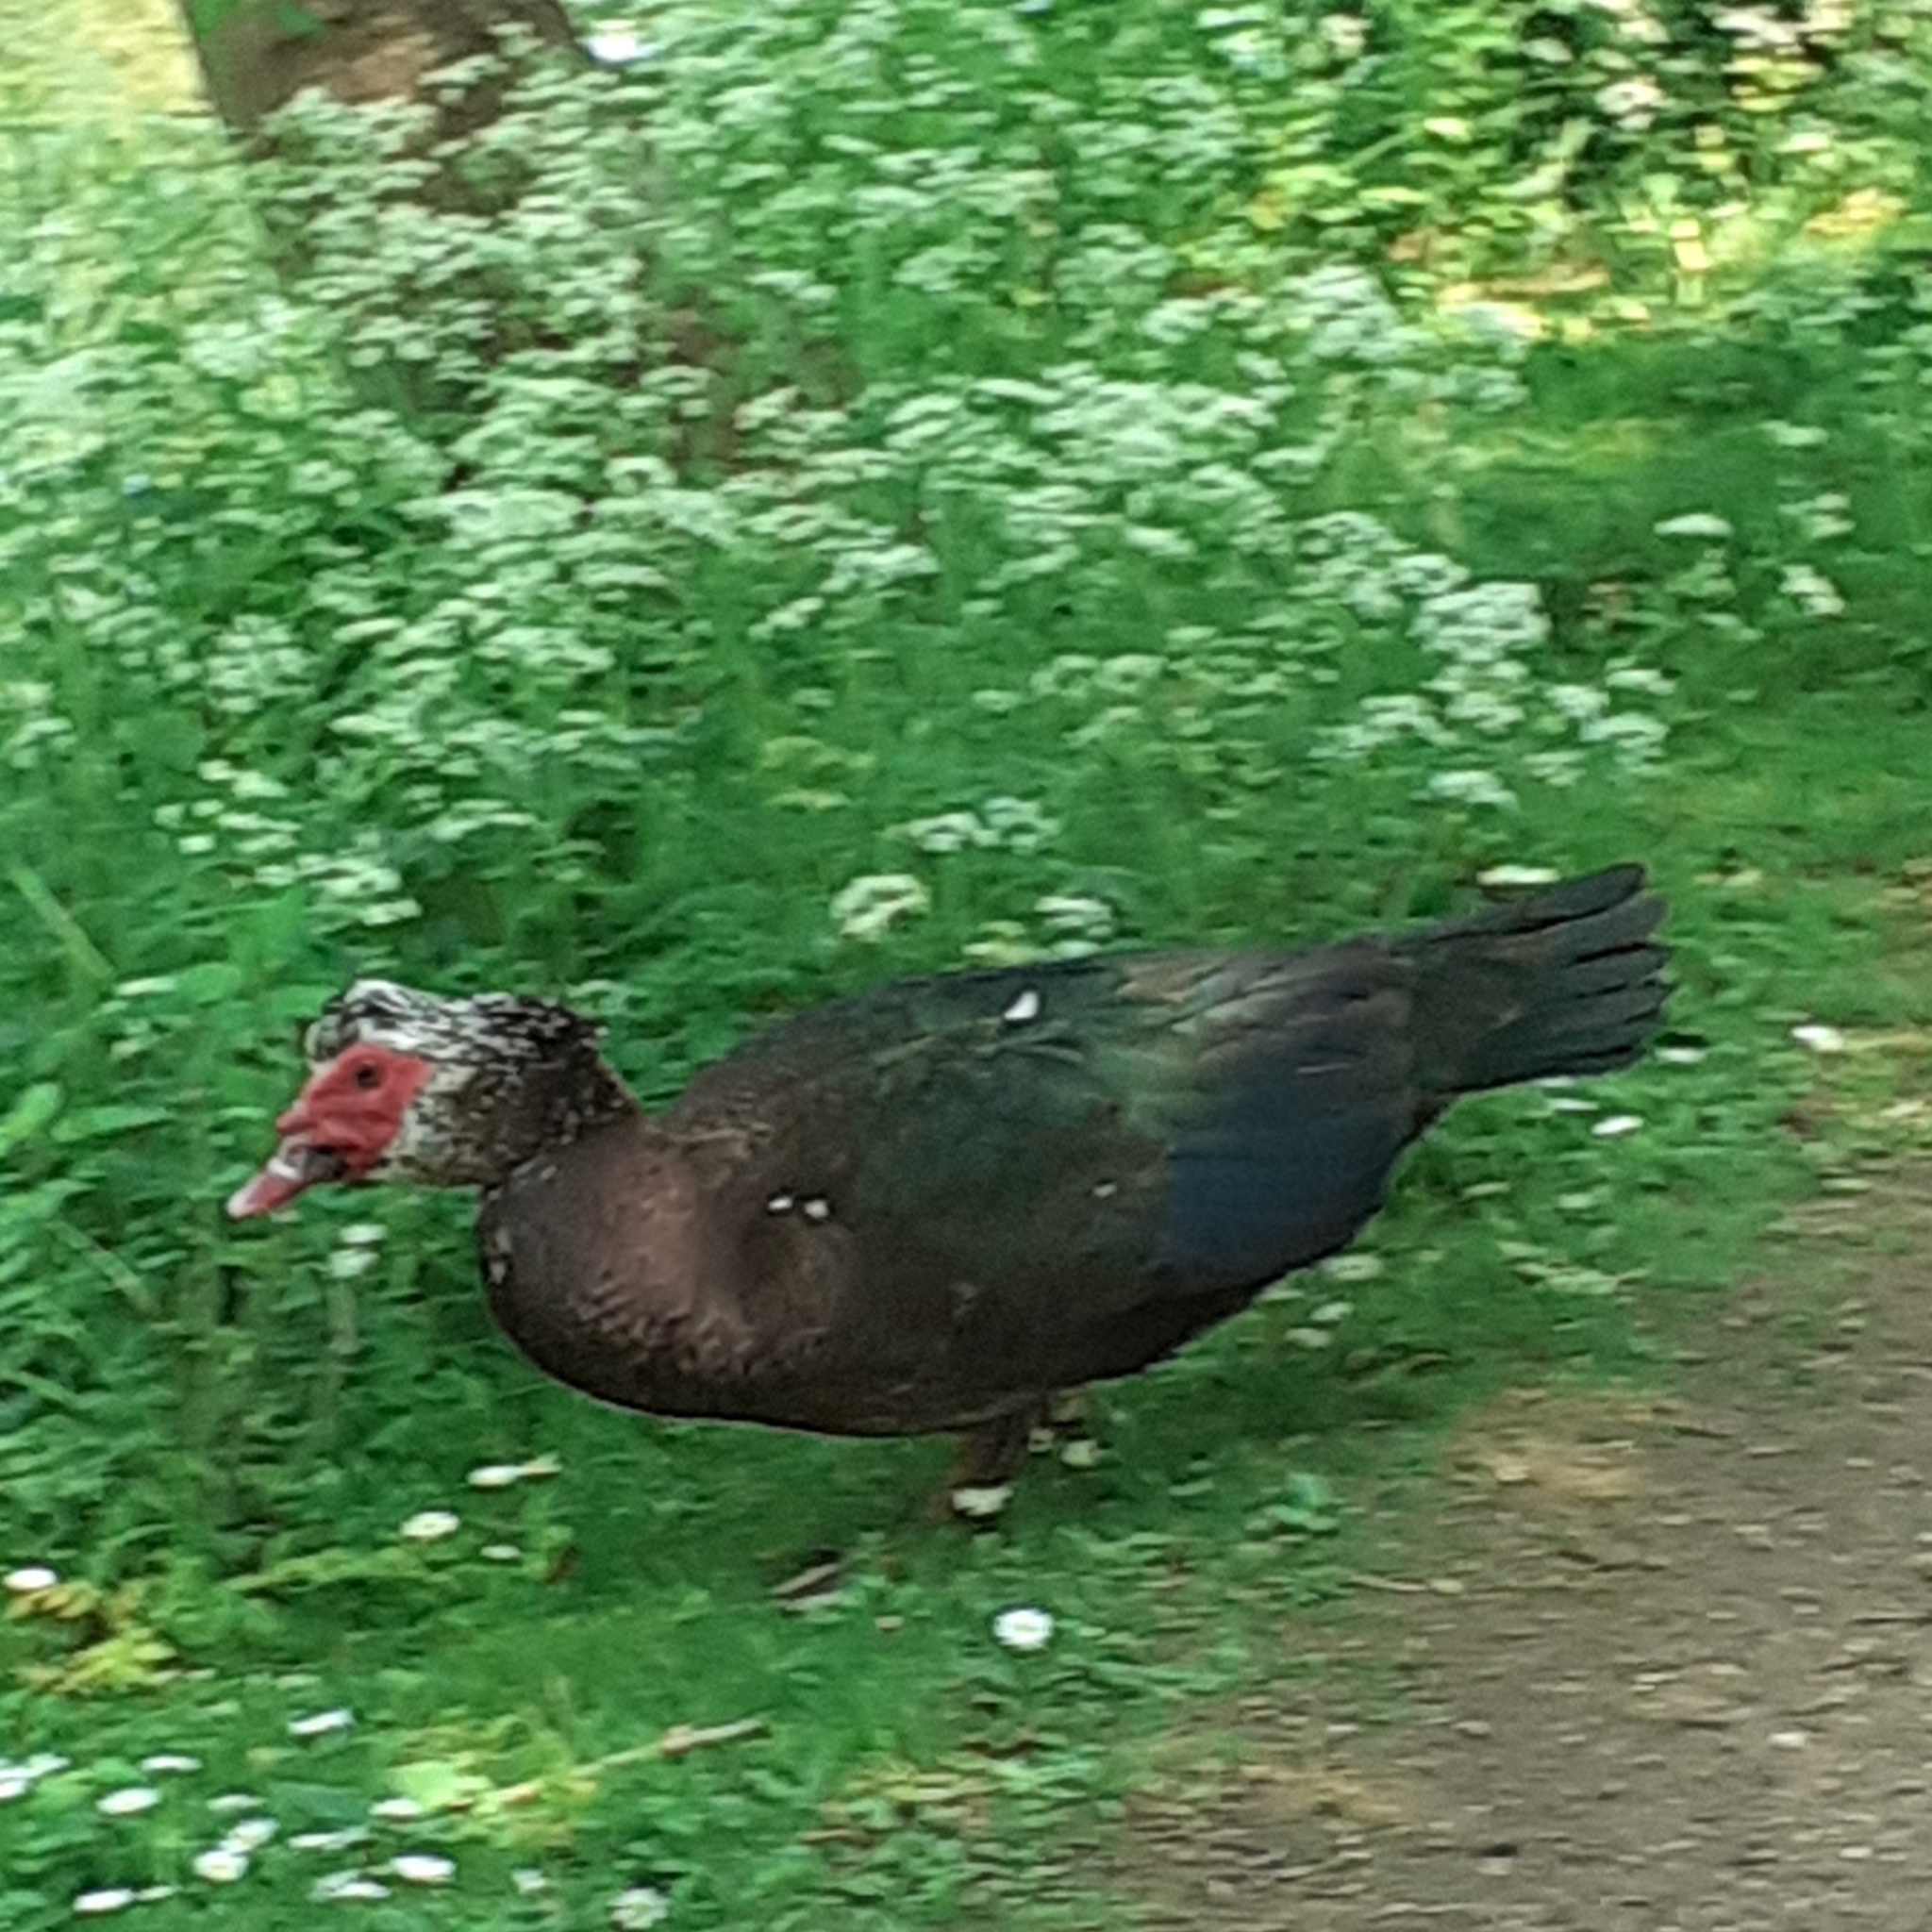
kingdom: Animalia
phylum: Chordata
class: Aves
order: Anseriformes
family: Anatidae
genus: Cairina
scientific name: Cairina moschata
